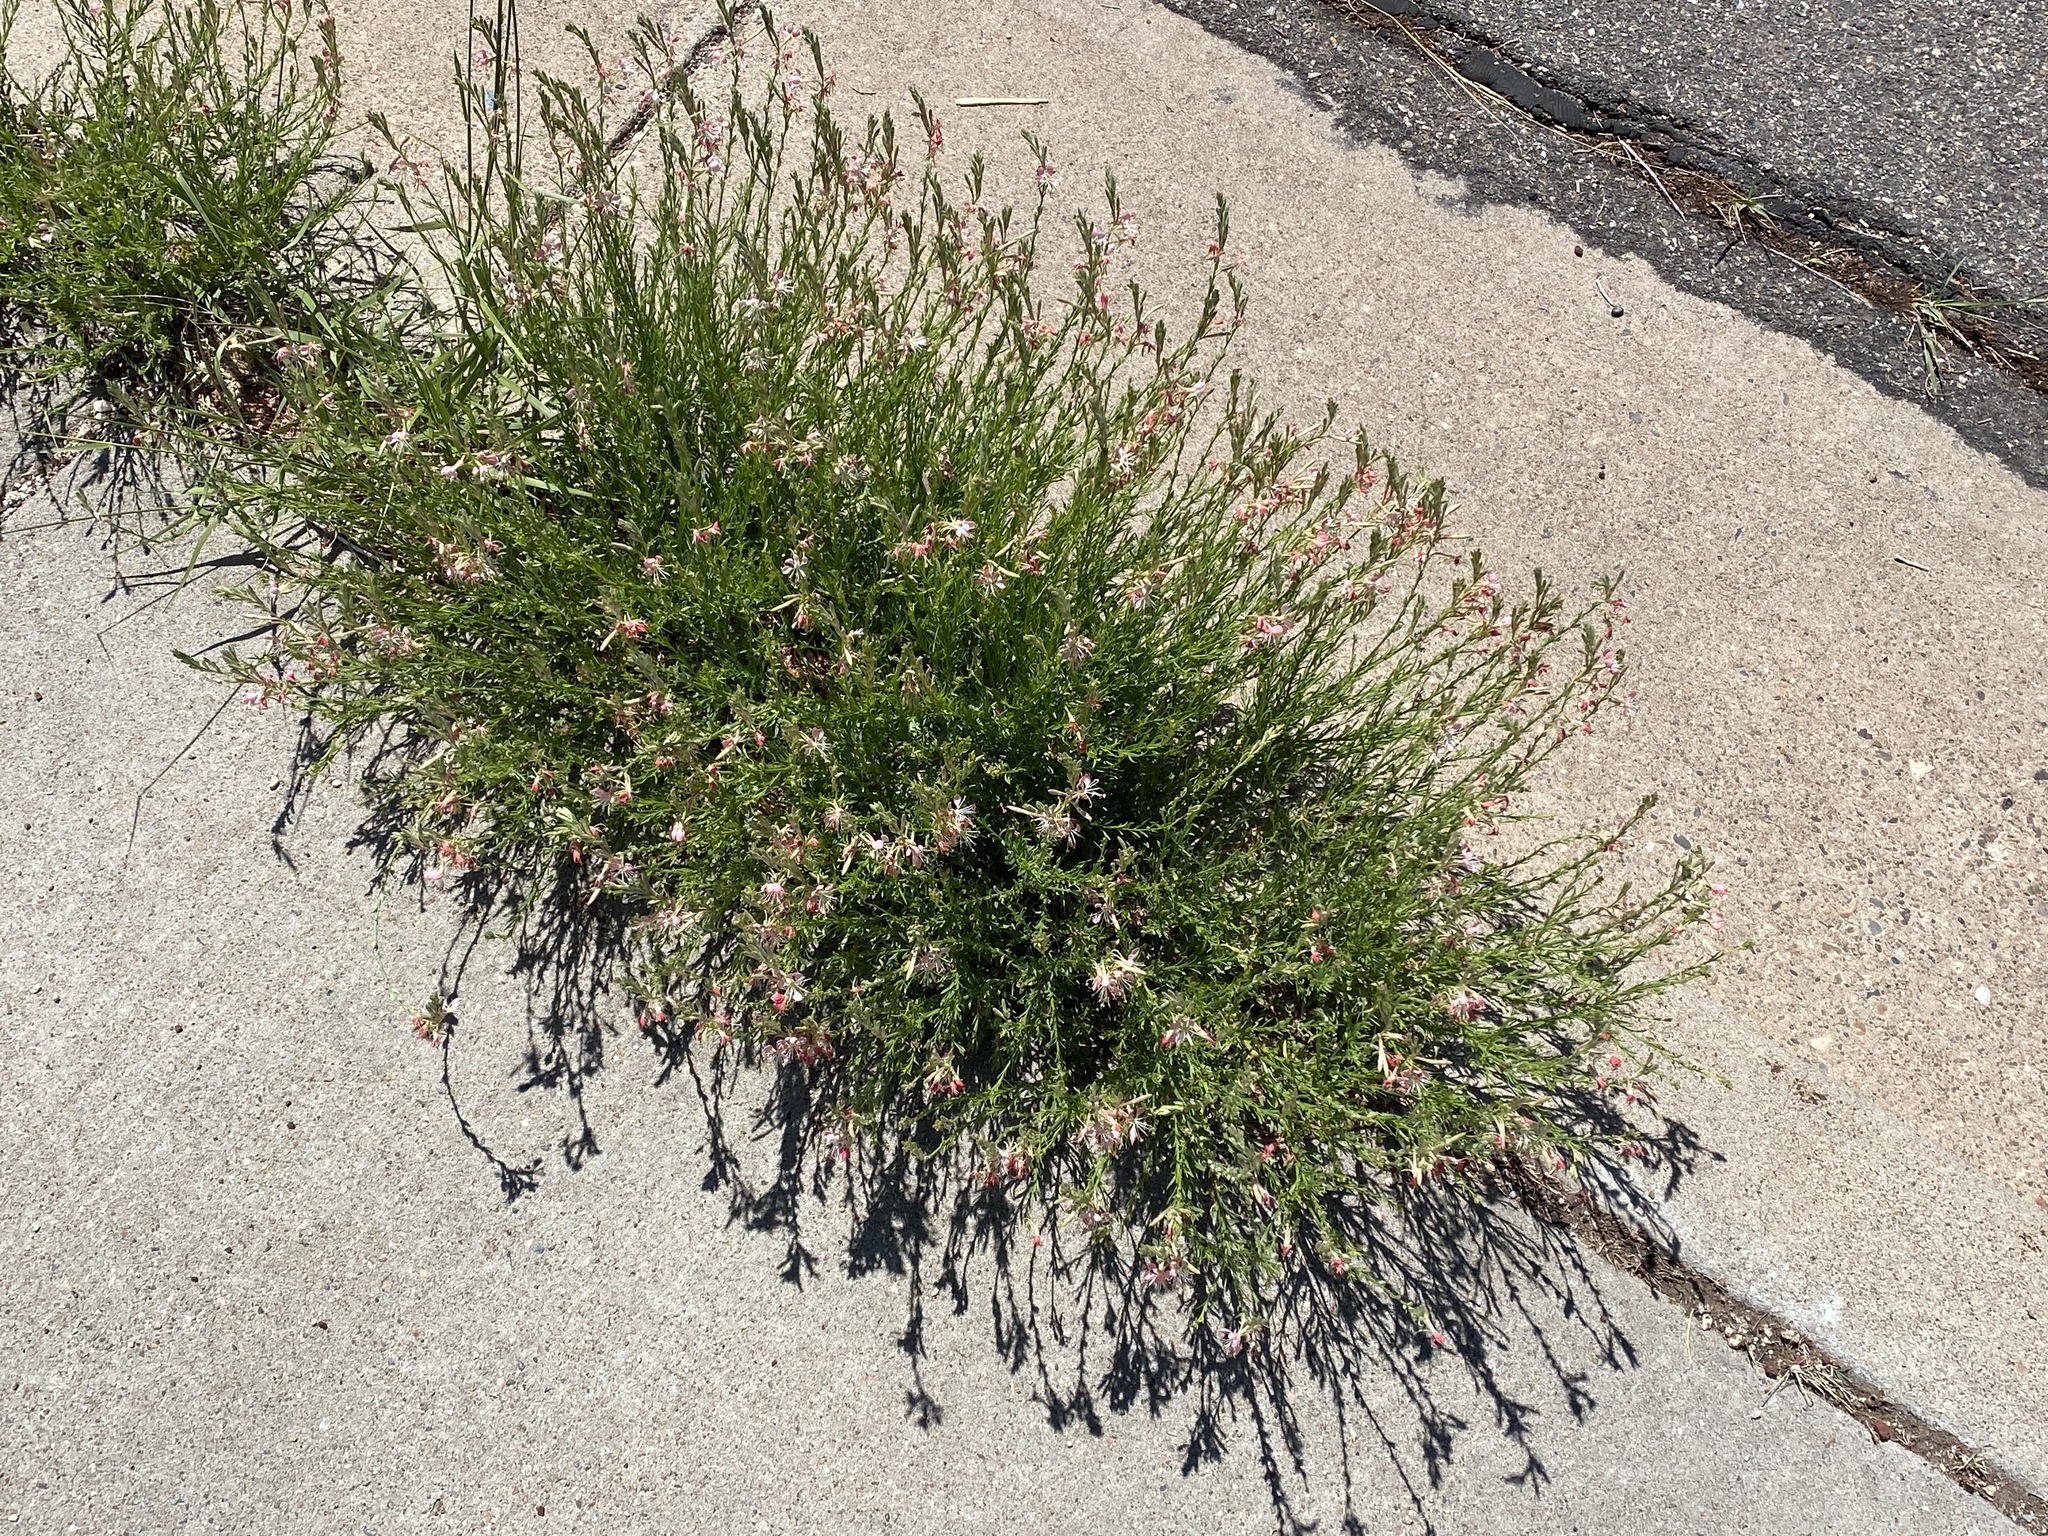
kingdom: Plantae
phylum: Tracheophyta
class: Magnoliopsida
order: Myrtales
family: Onagraceae
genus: Oenothera
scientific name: Oenothera suffrutescens
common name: Scarlet beeblossom
